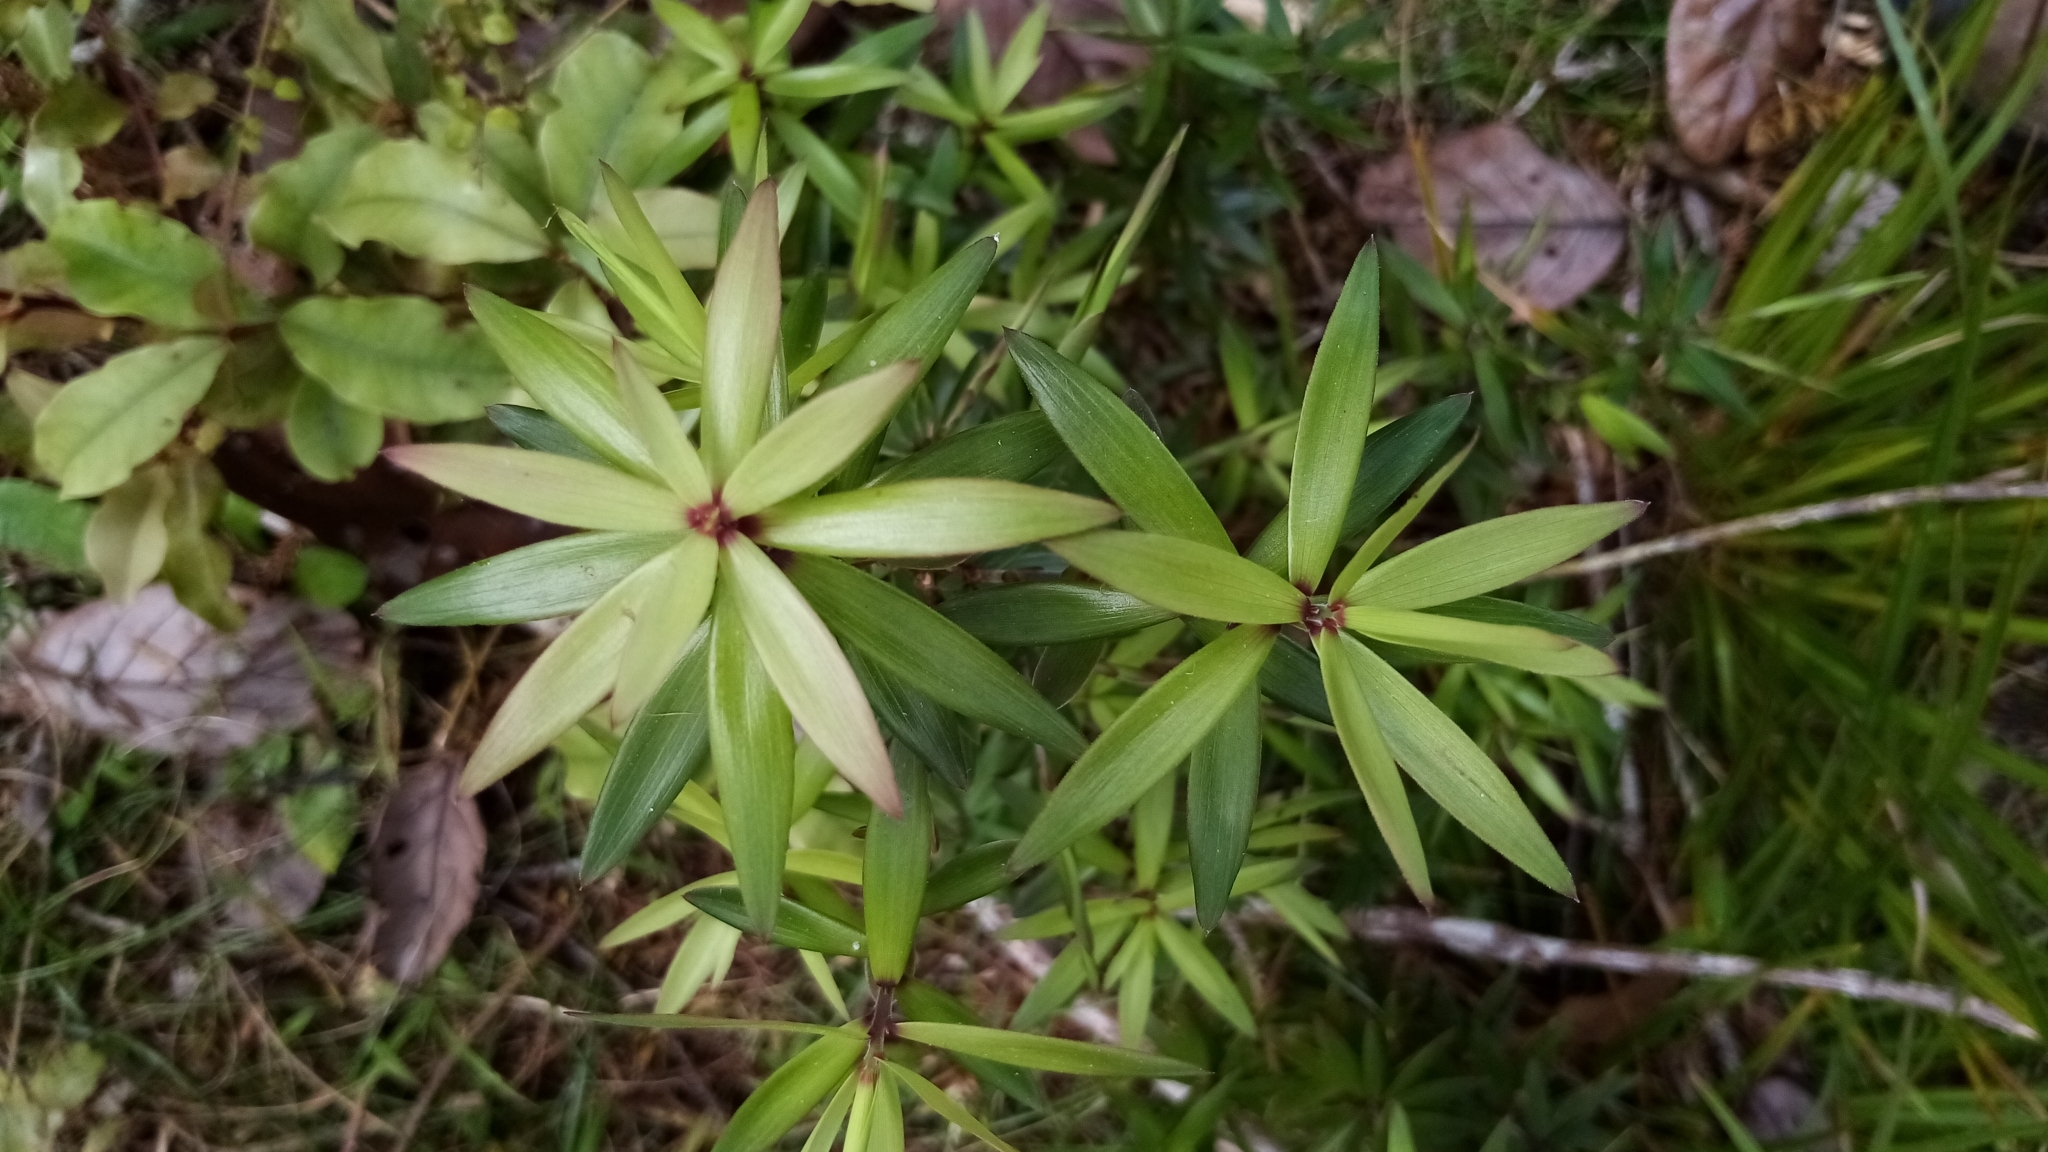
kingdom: Plantae
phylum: Tracheophyta
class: Magnoliopsida
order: Ericales
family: Ericaceae
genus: Leucopogon
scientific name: Leucopogon fasciculatus
